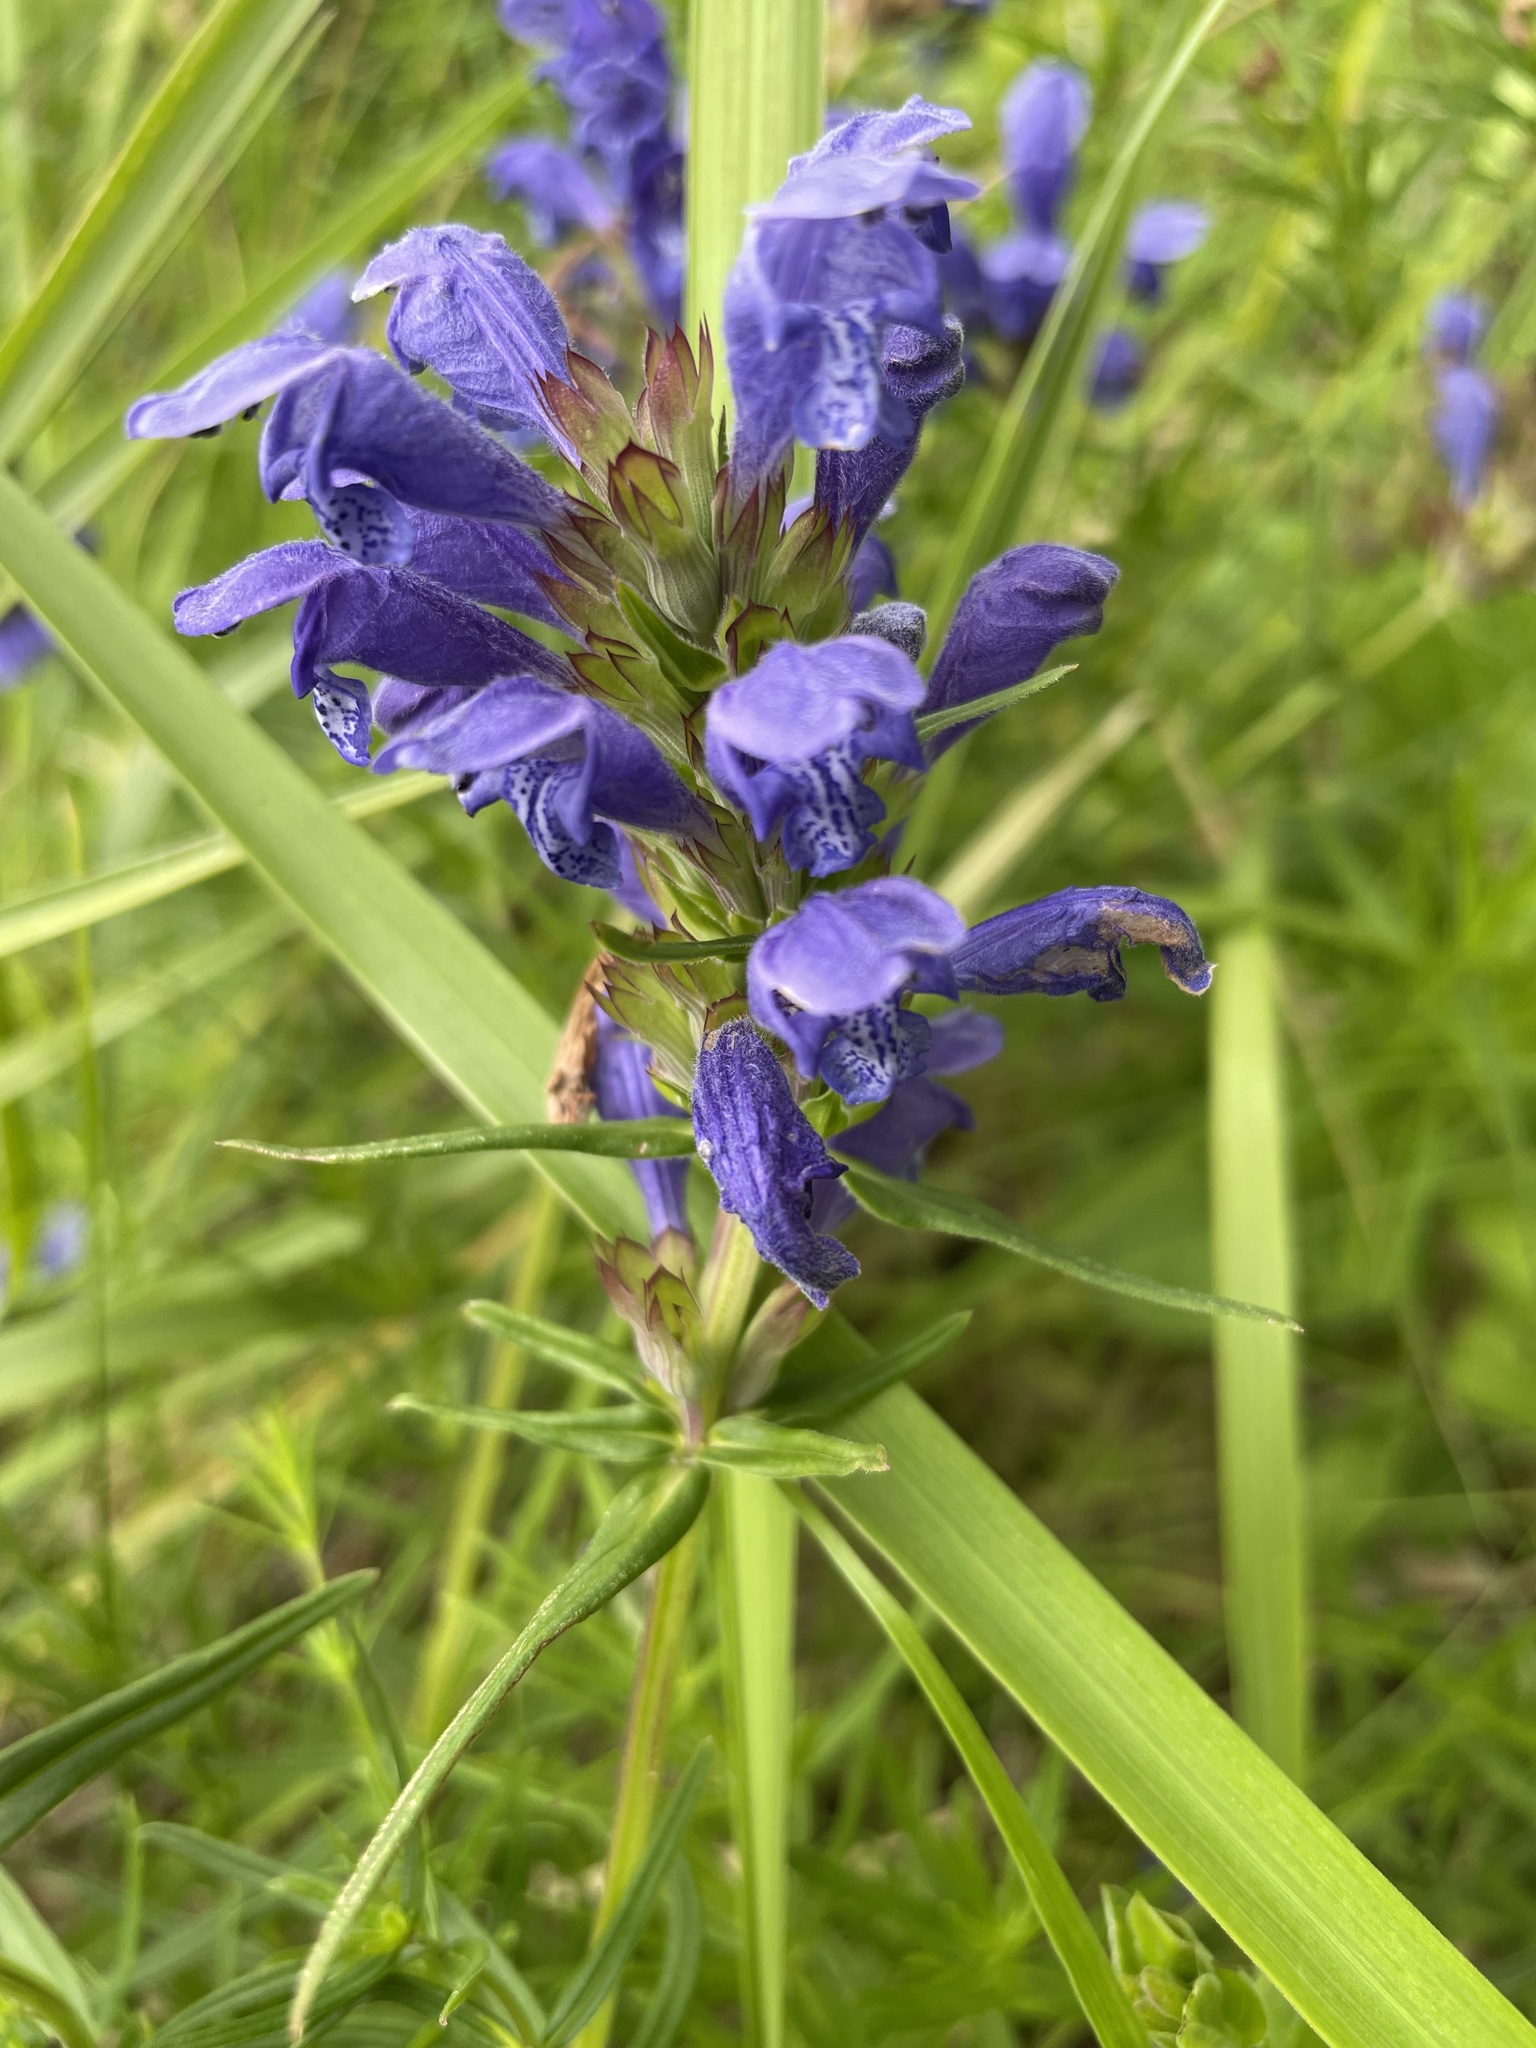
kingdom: Plantae
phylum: Tracheophyta
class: Magnoliopsida
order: Lamiales
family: Lamiaceae
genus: Dracocephalum
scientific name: Dracocephalum ruyschiana
